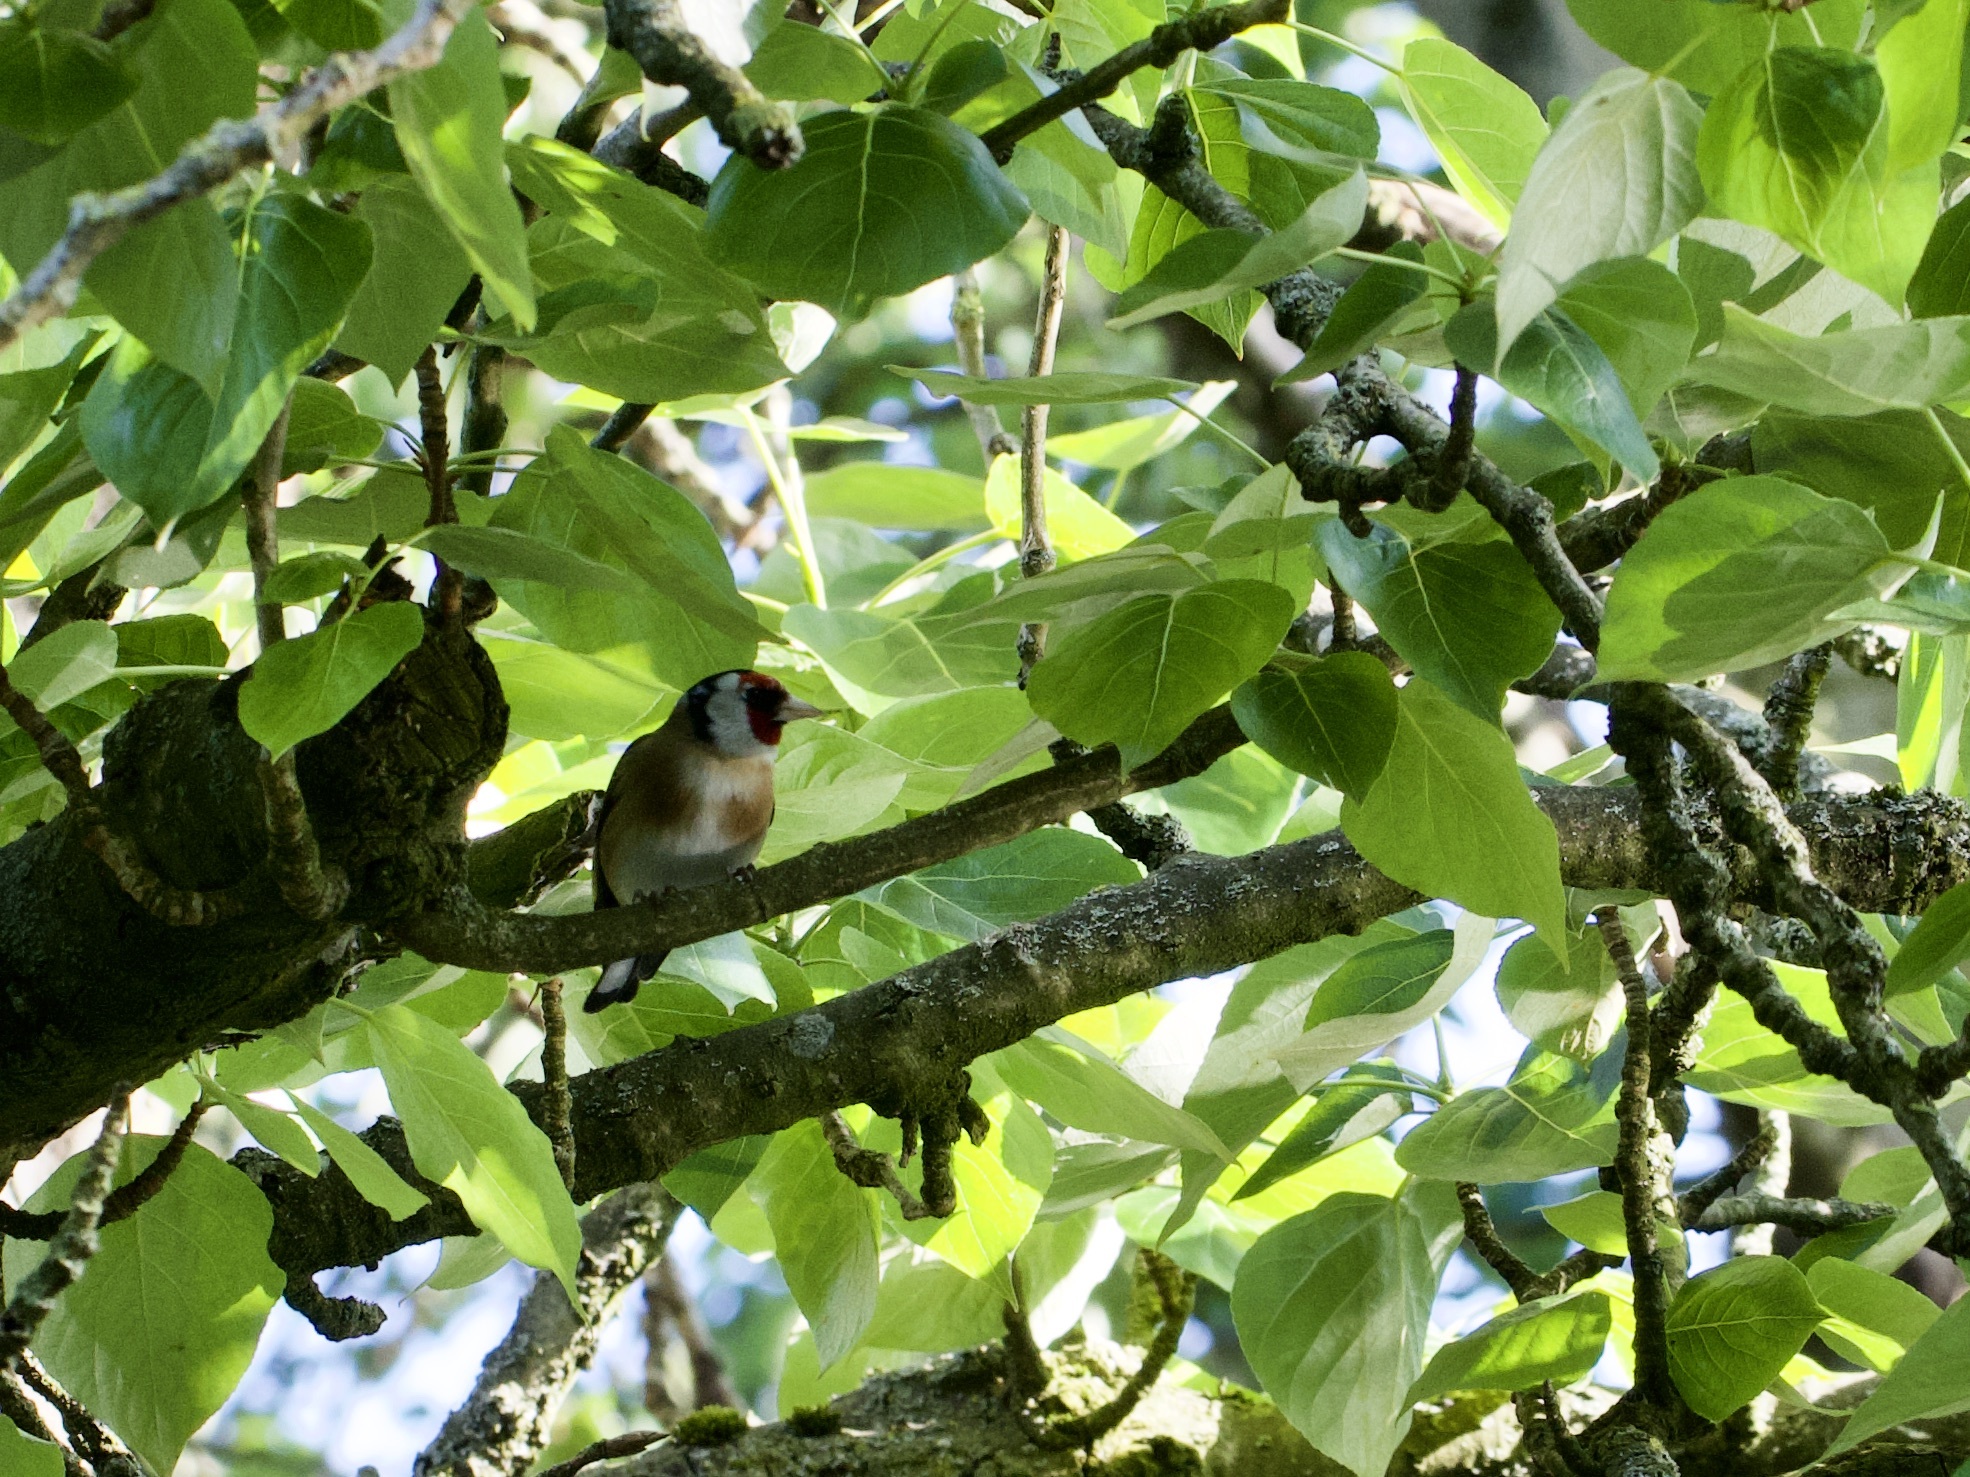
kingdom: Animalia
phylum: Chordata
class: Aves
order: Passeriformes
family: Fringillidae
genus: Carduelis
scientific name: Carduelis carduelis
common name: European goldfinch
